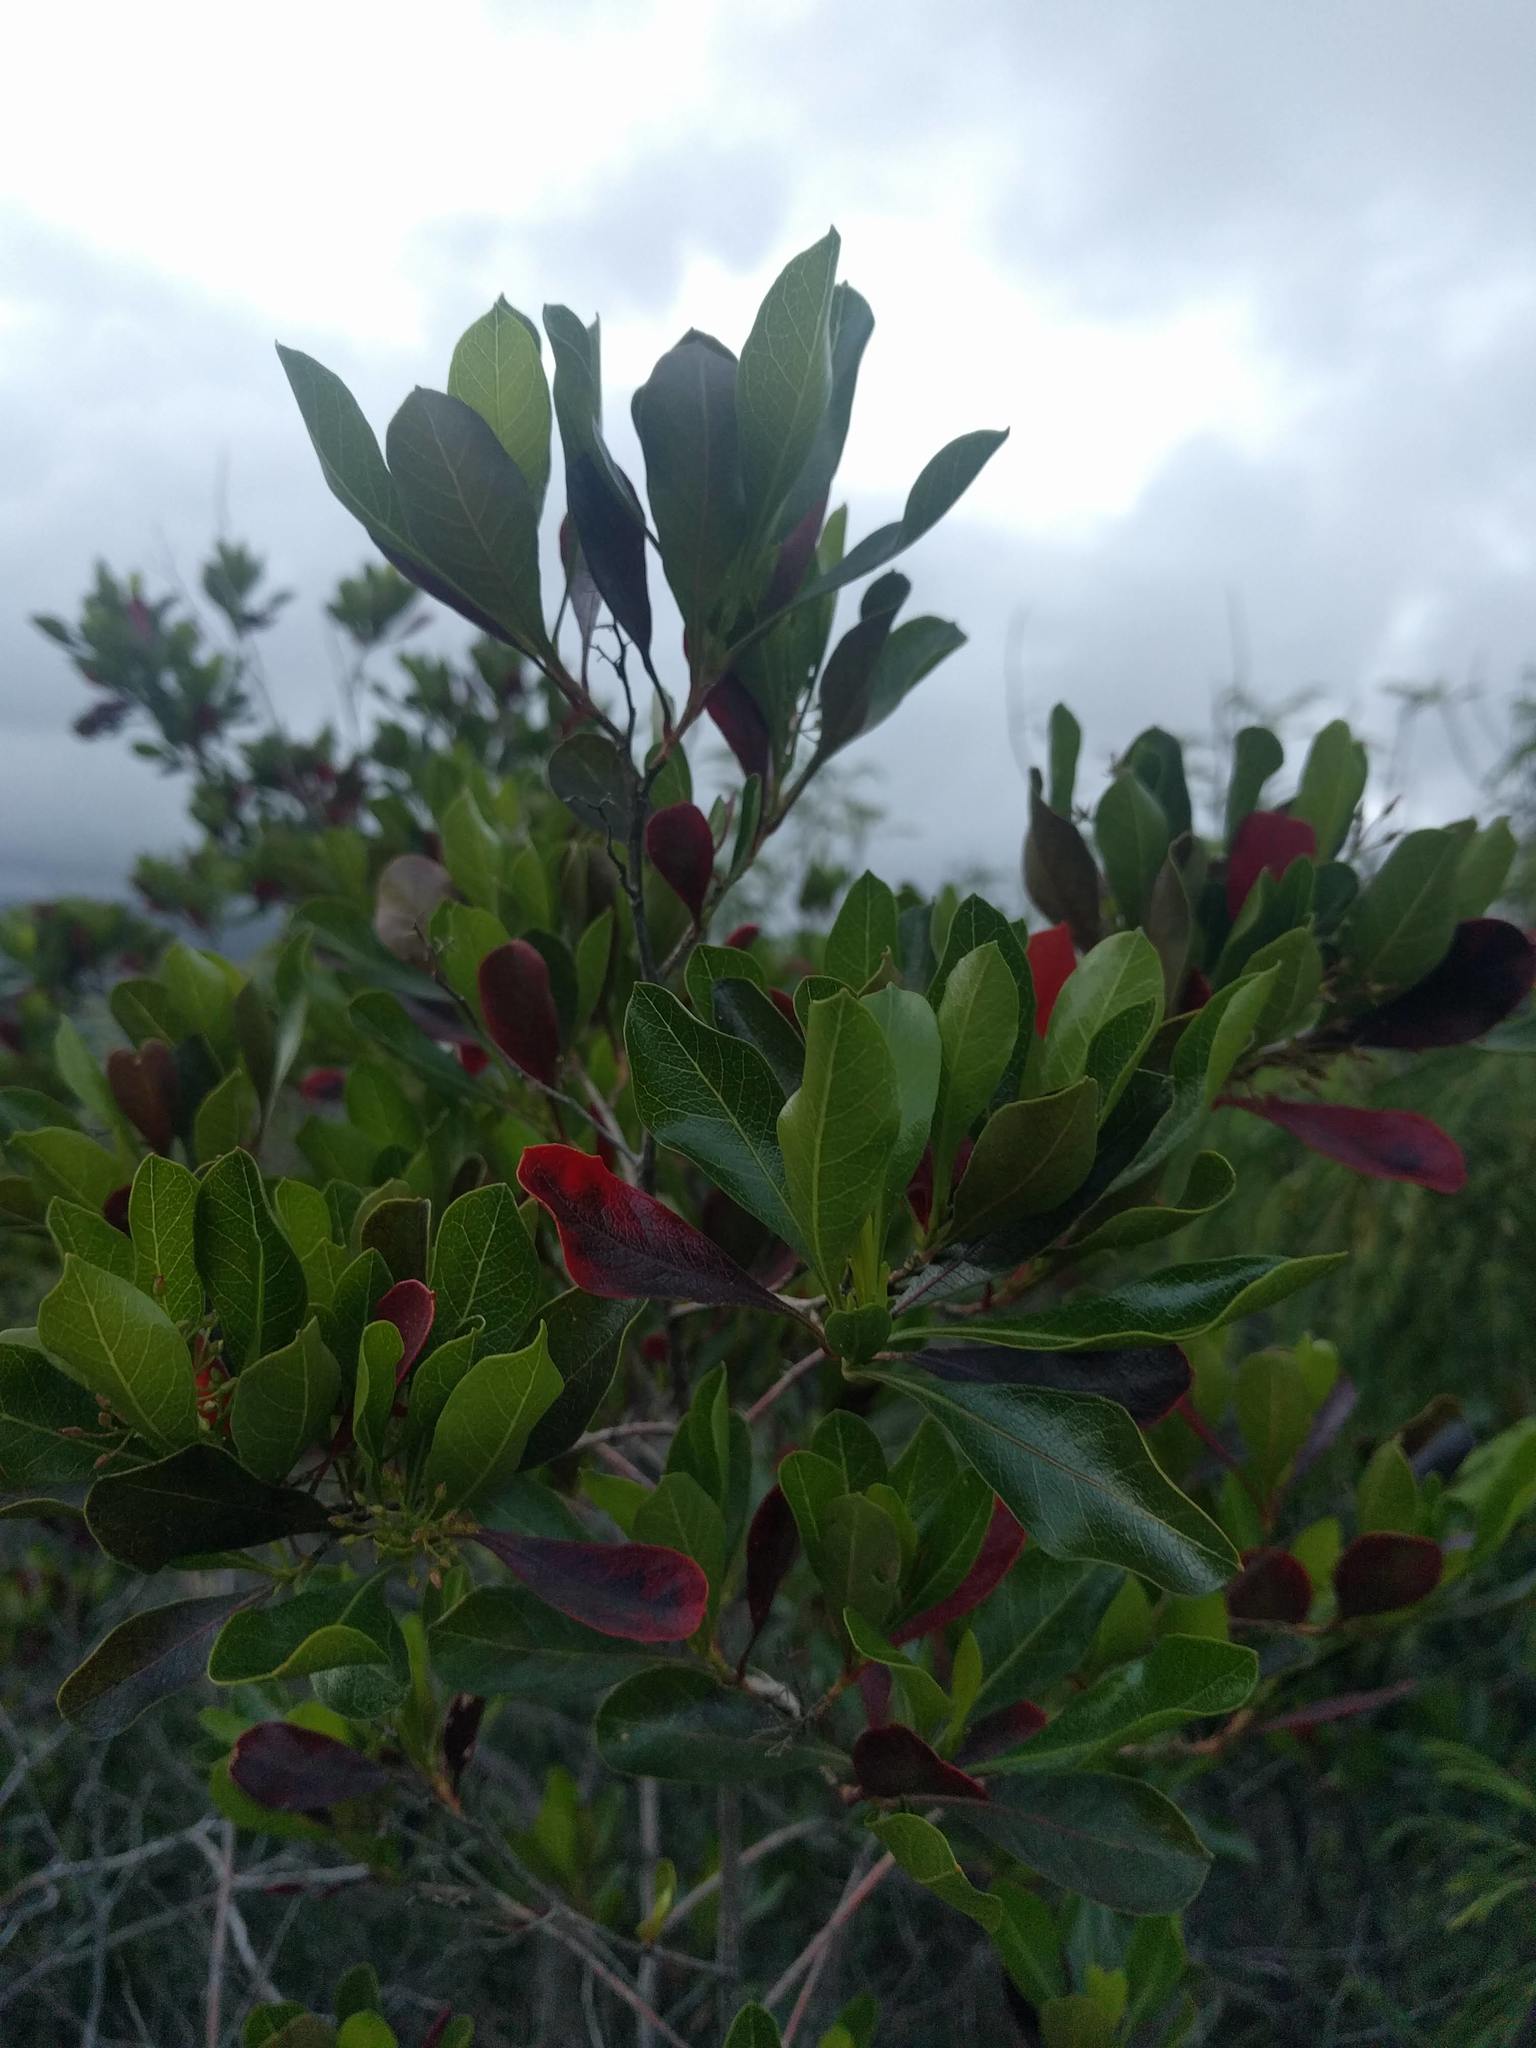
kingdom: Plantae
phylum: Tracheophyta
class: Magnoliopsida
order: Sapindales
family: Sapindaceae
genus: Dodonaea
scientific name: Dodonaea viscosa
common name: Hopbush
